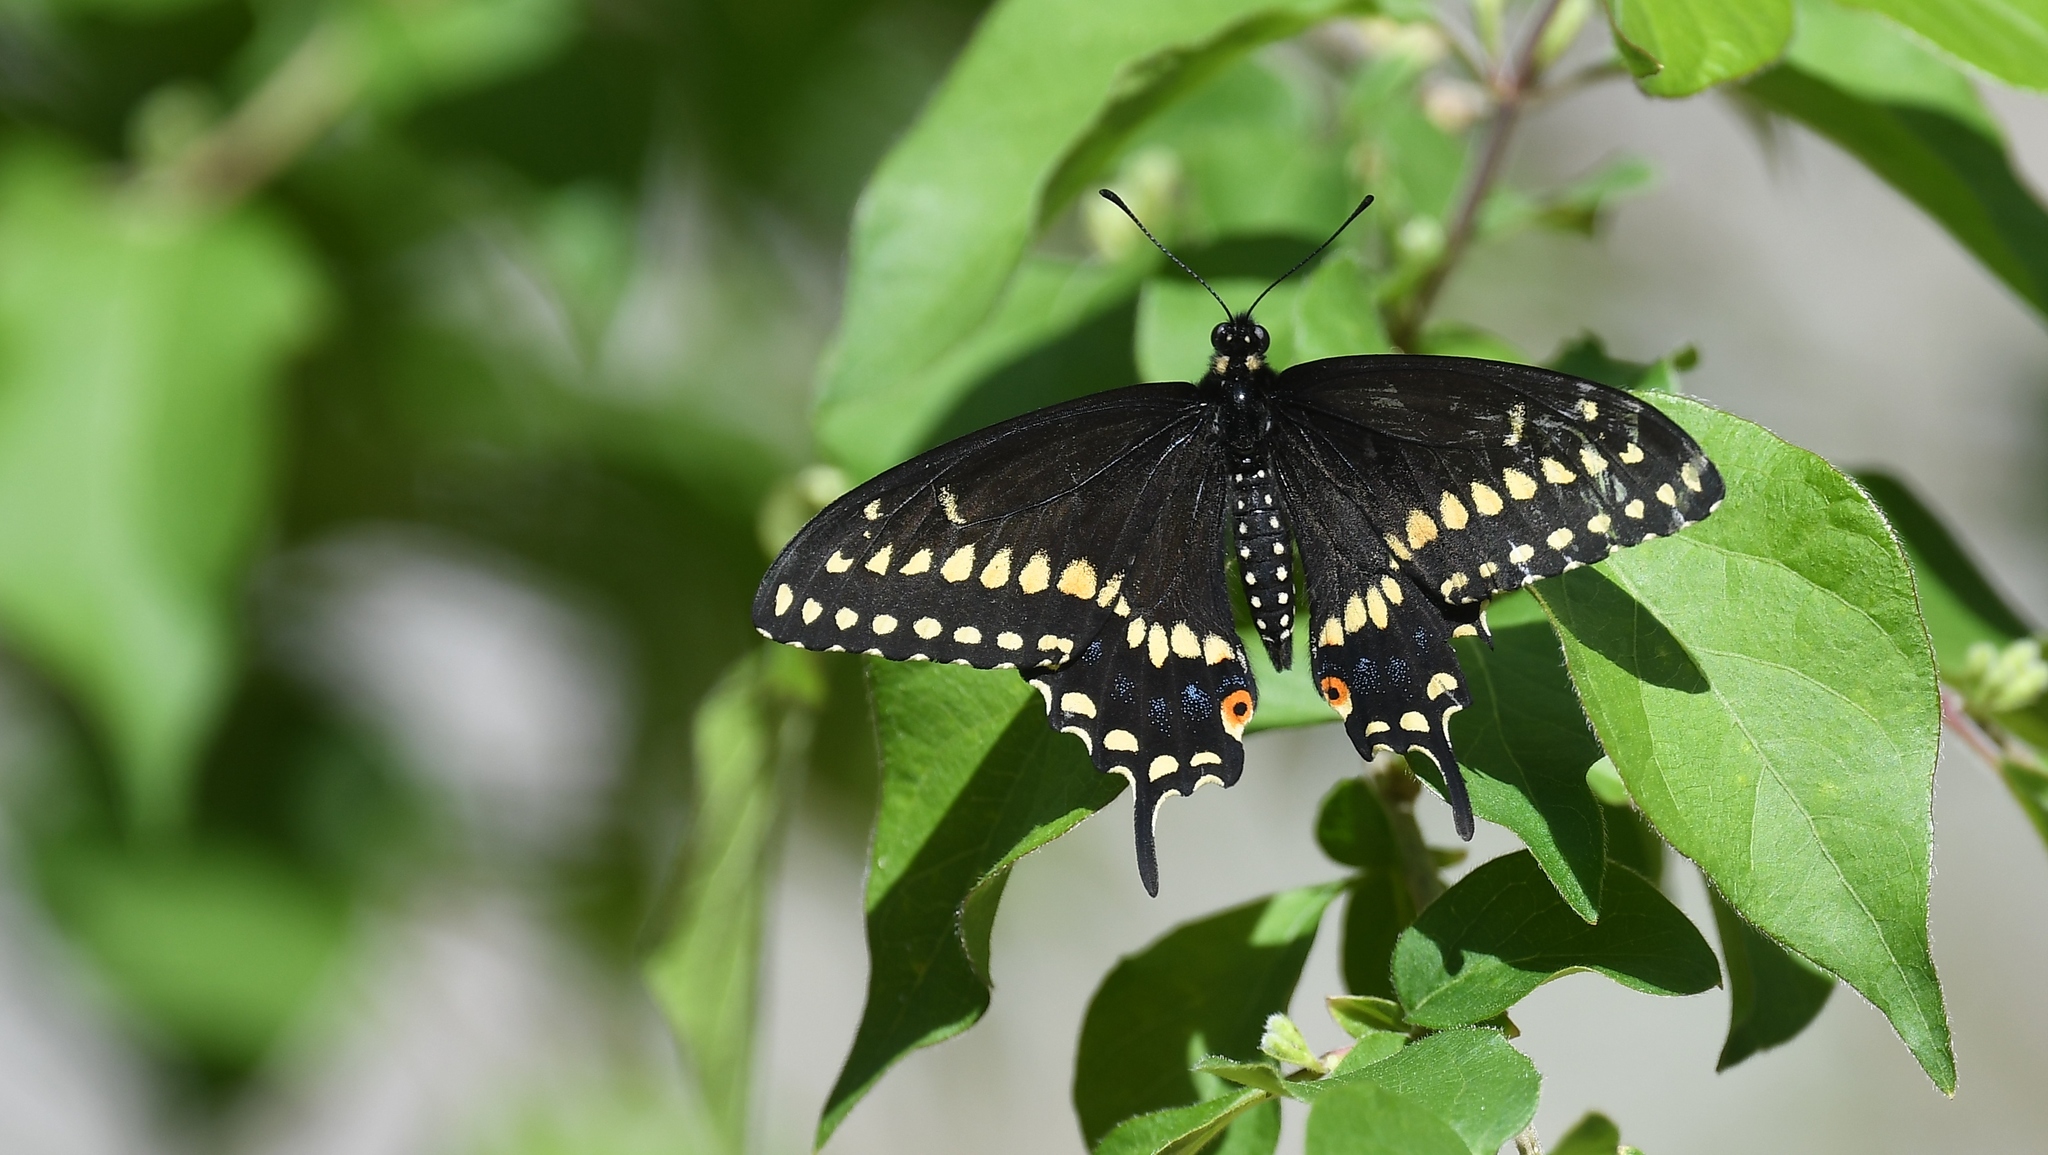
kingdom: Animalia
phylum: Arthropoda
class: Insecta
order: Lepidoptera
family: Papilionidae
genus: Papilio
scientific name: Papilio polyxenes
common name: Black swallowtail
